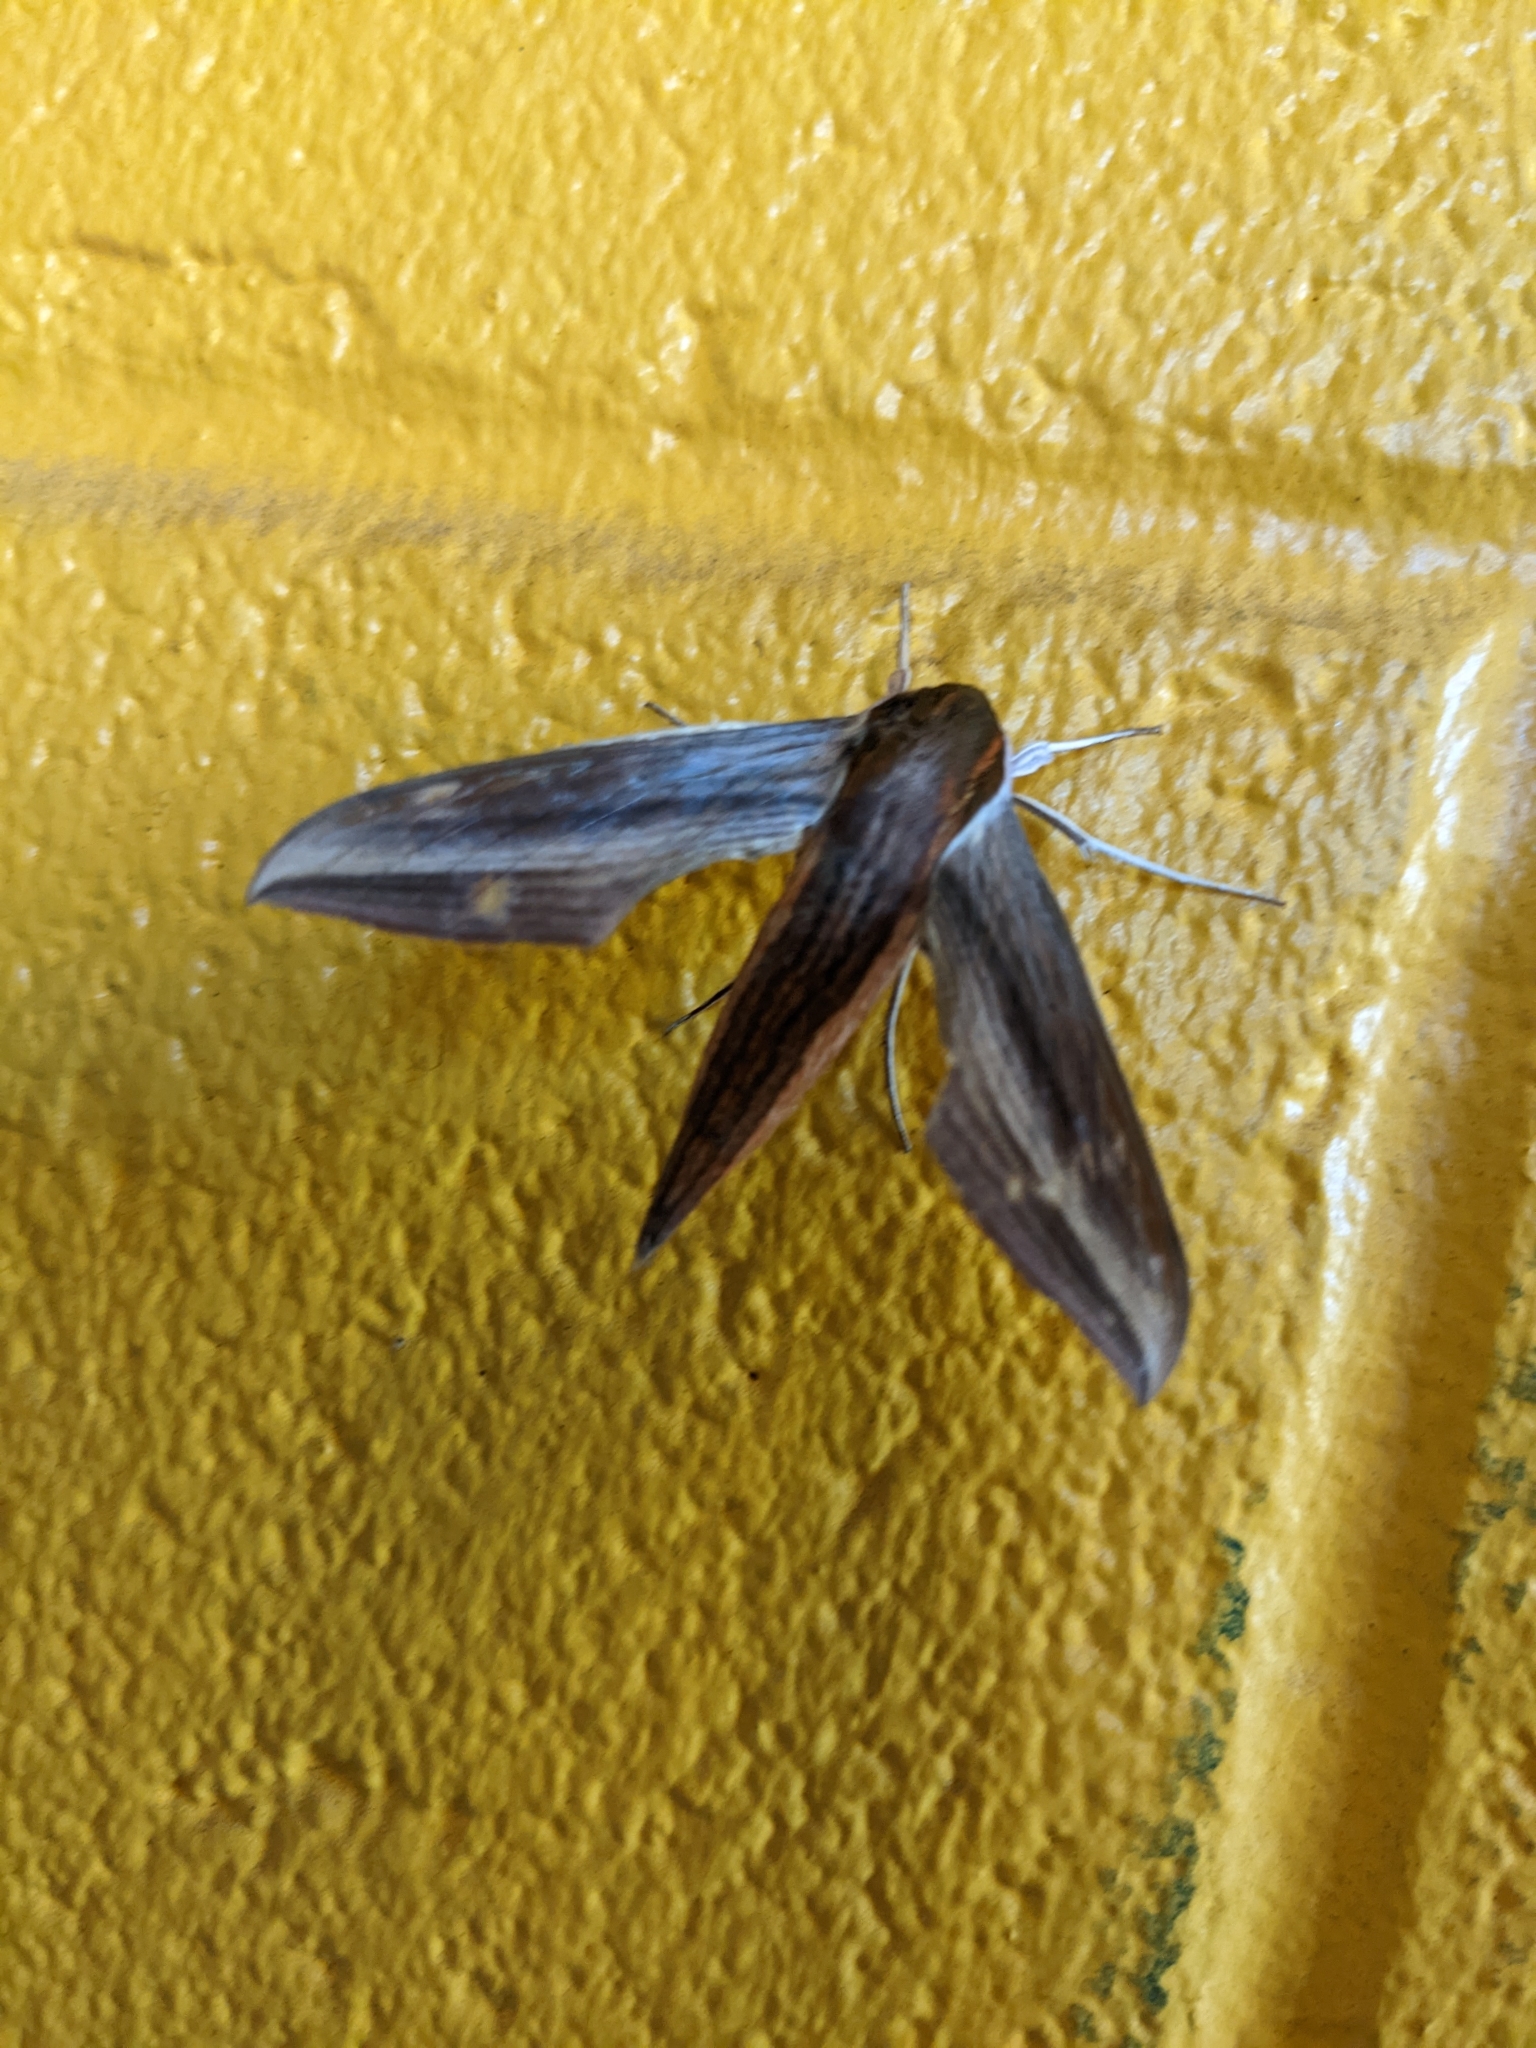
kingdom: Animalia
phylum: Arthropoda
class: Insecta
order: Lepidoptera
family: Sphingidae
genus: Xylophanes
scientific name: Xylophanes tersa
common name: Tersa sphinx
